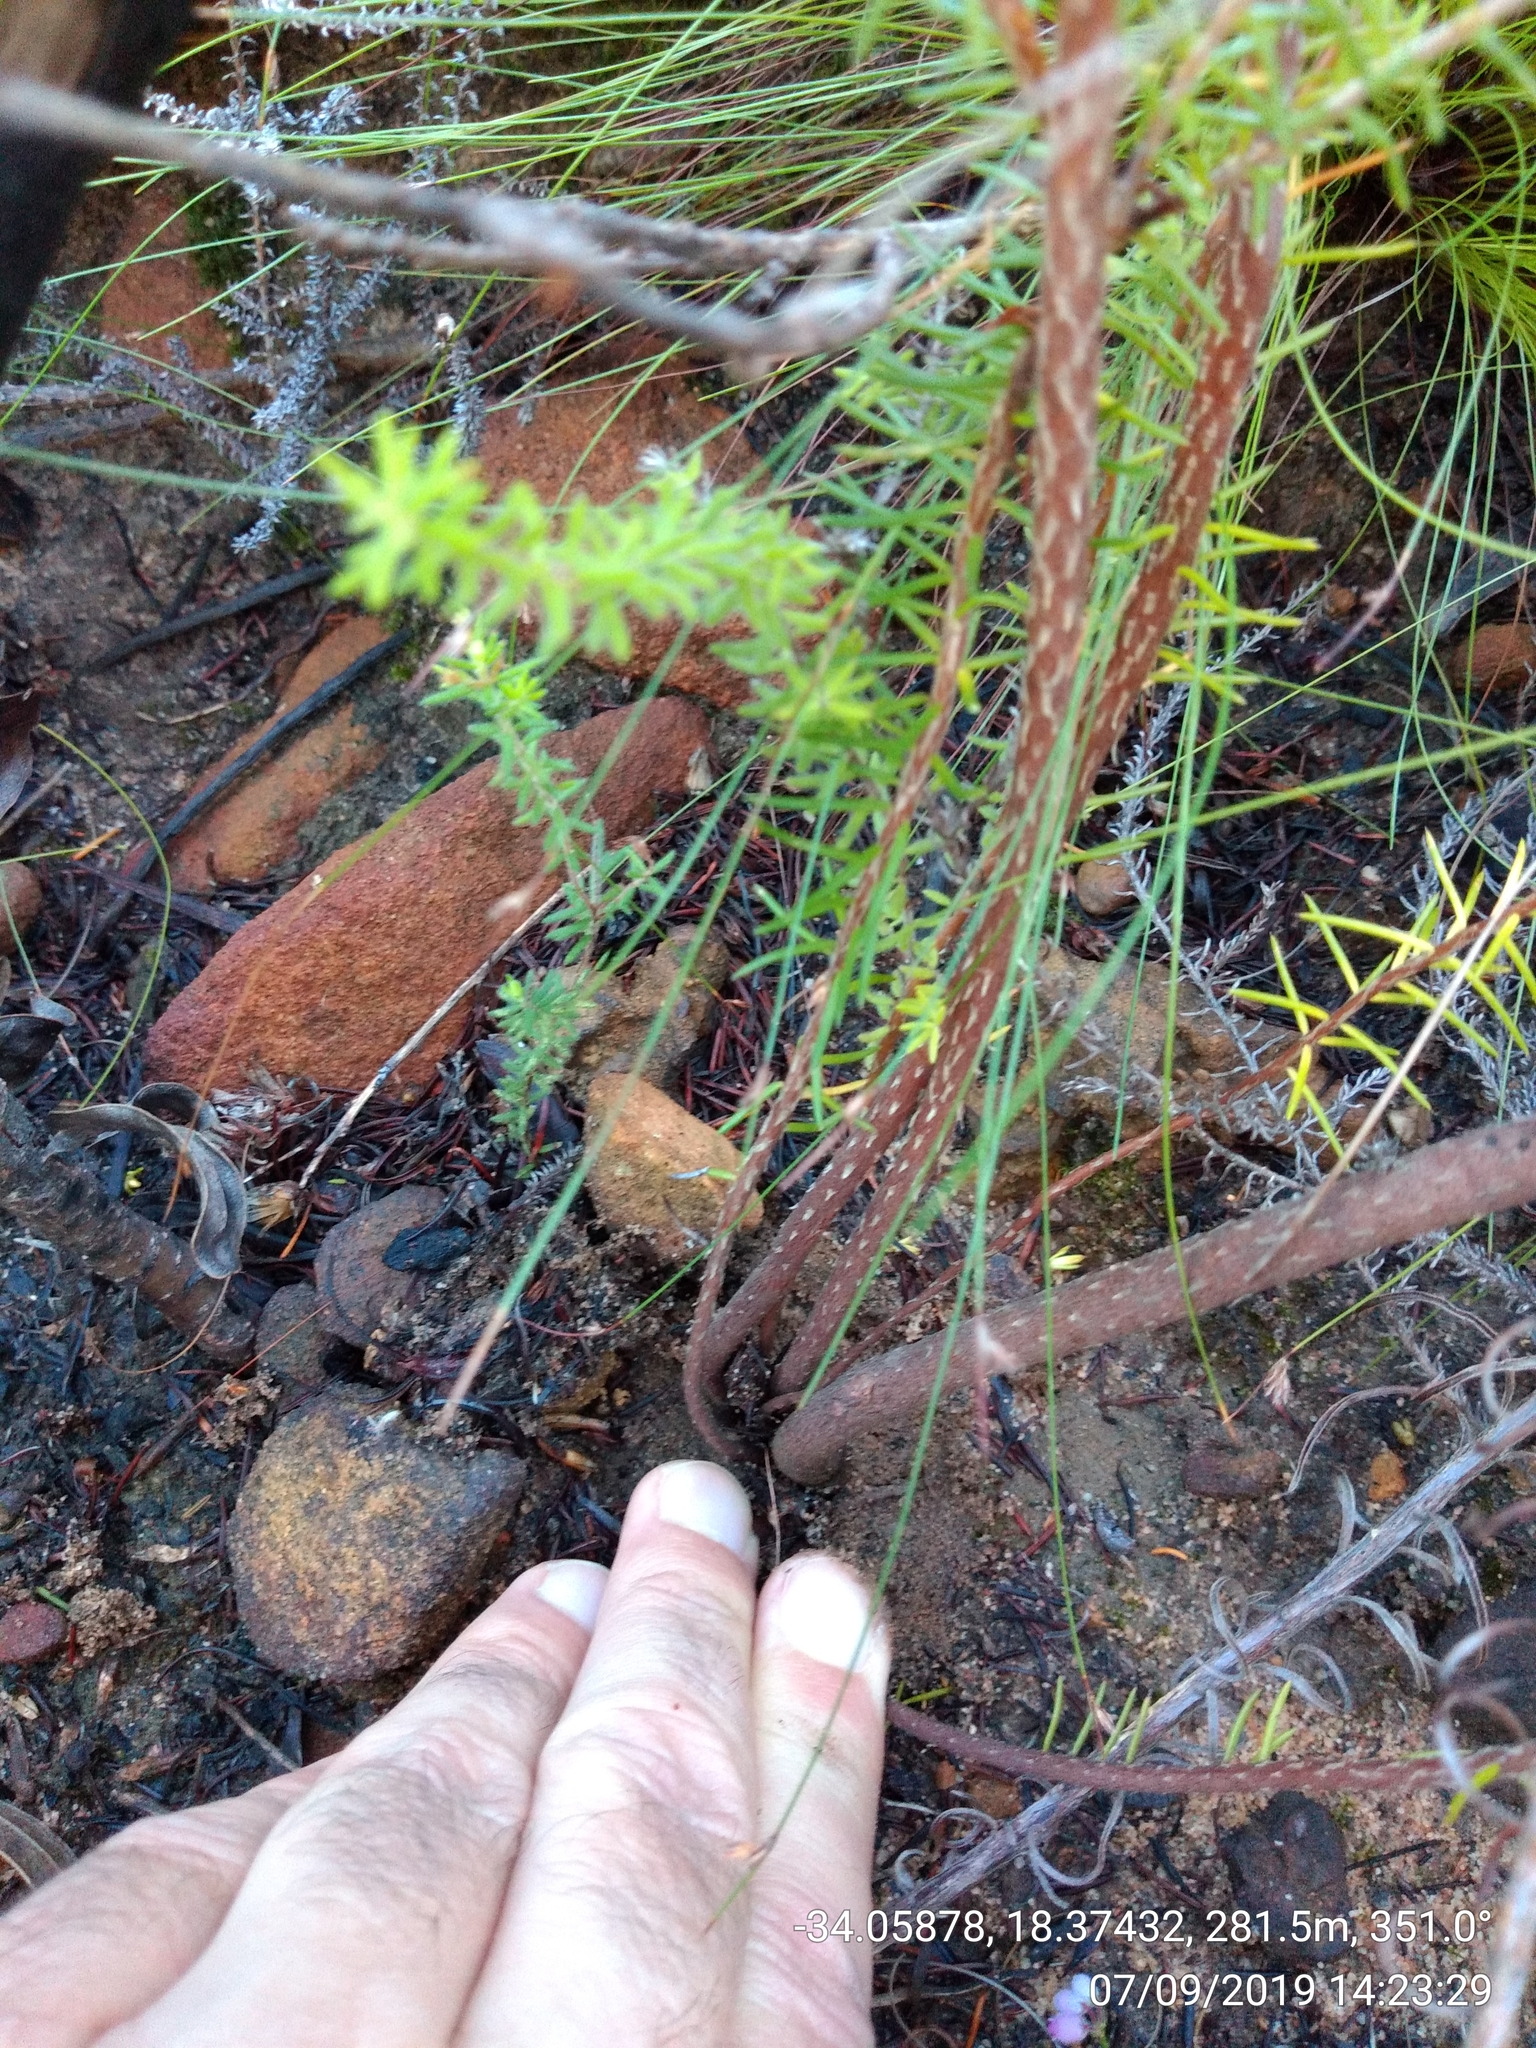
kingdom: Plantae
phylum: Tracheophyta
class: Magnoliopsida
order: Ericales
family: Ericaceae
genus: Erica
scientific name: Erica abietina
